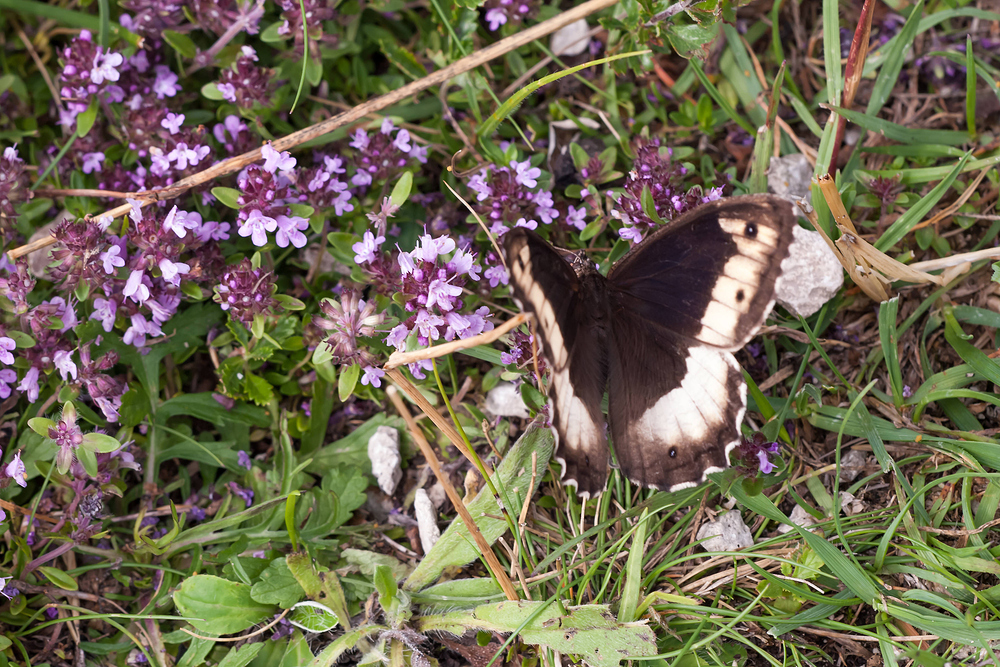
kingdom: Animalia
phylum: Arthropoda
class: Insecta
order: Lepidoptera
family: Nymphalidae
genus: Hipparchia
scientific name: Hipparchia hermione
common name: Rock grayling
